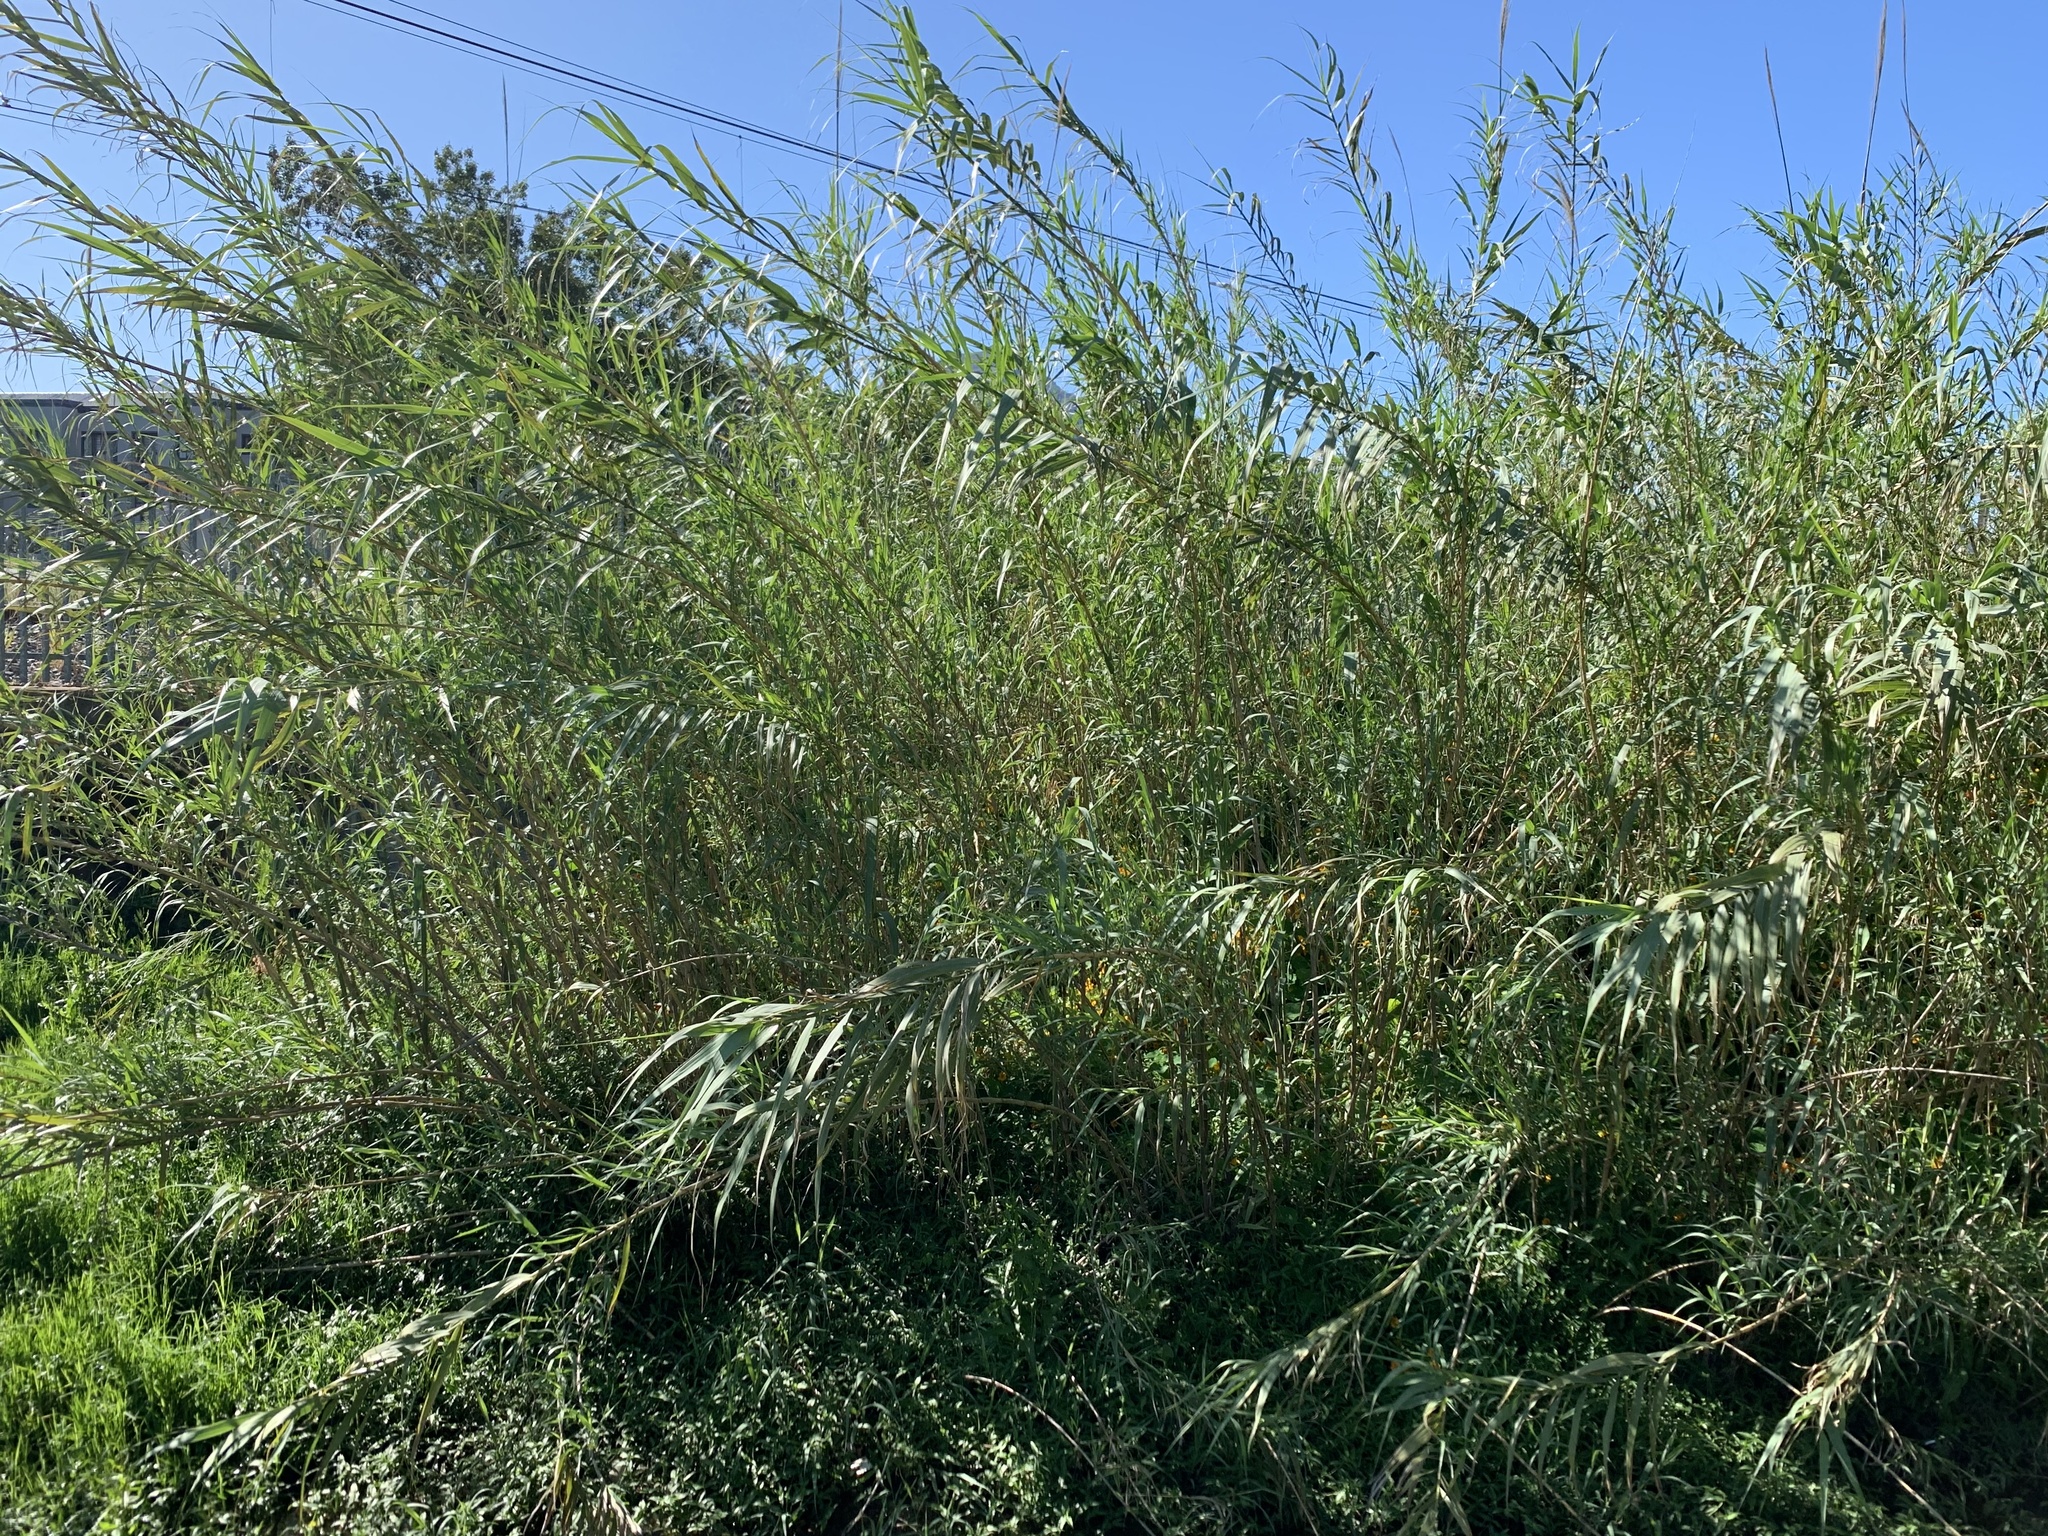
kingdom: Plantae
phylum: Tracheophyta
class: Liliopsida
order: Poales
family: Poaceae
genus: Arundo
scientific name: Arundo donax
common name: Giant reed
